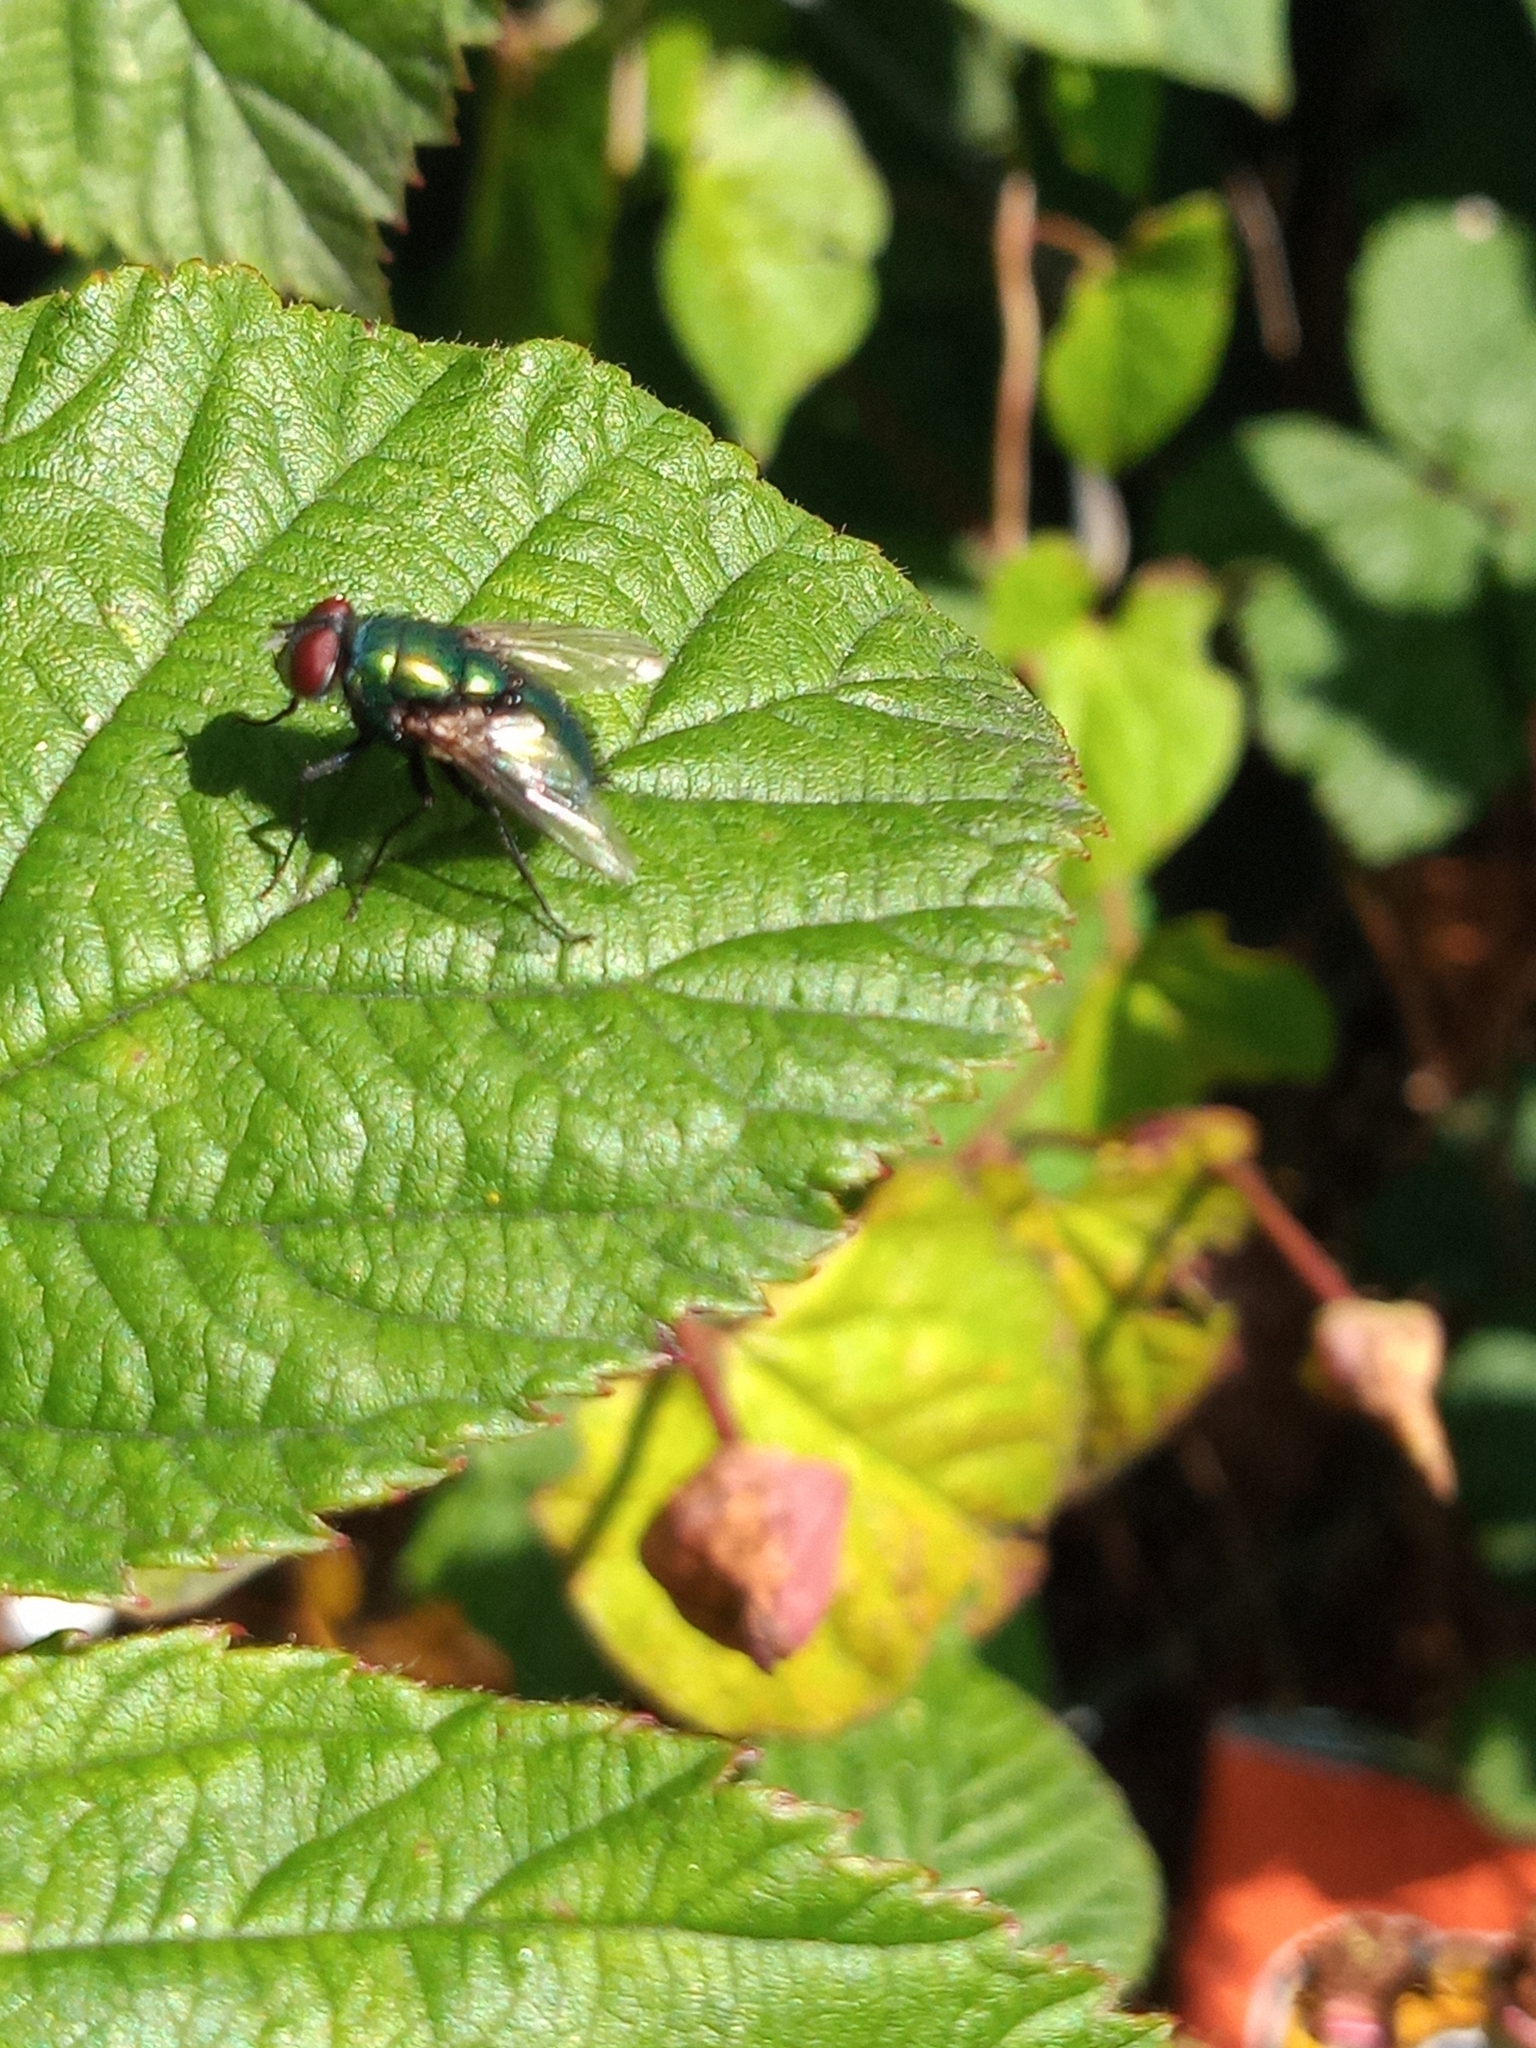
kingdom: Animalia
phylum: Arthropoda
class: Insecta
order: Diptera
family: Calliphoridae
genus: Lucilia
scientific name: Lucilia
